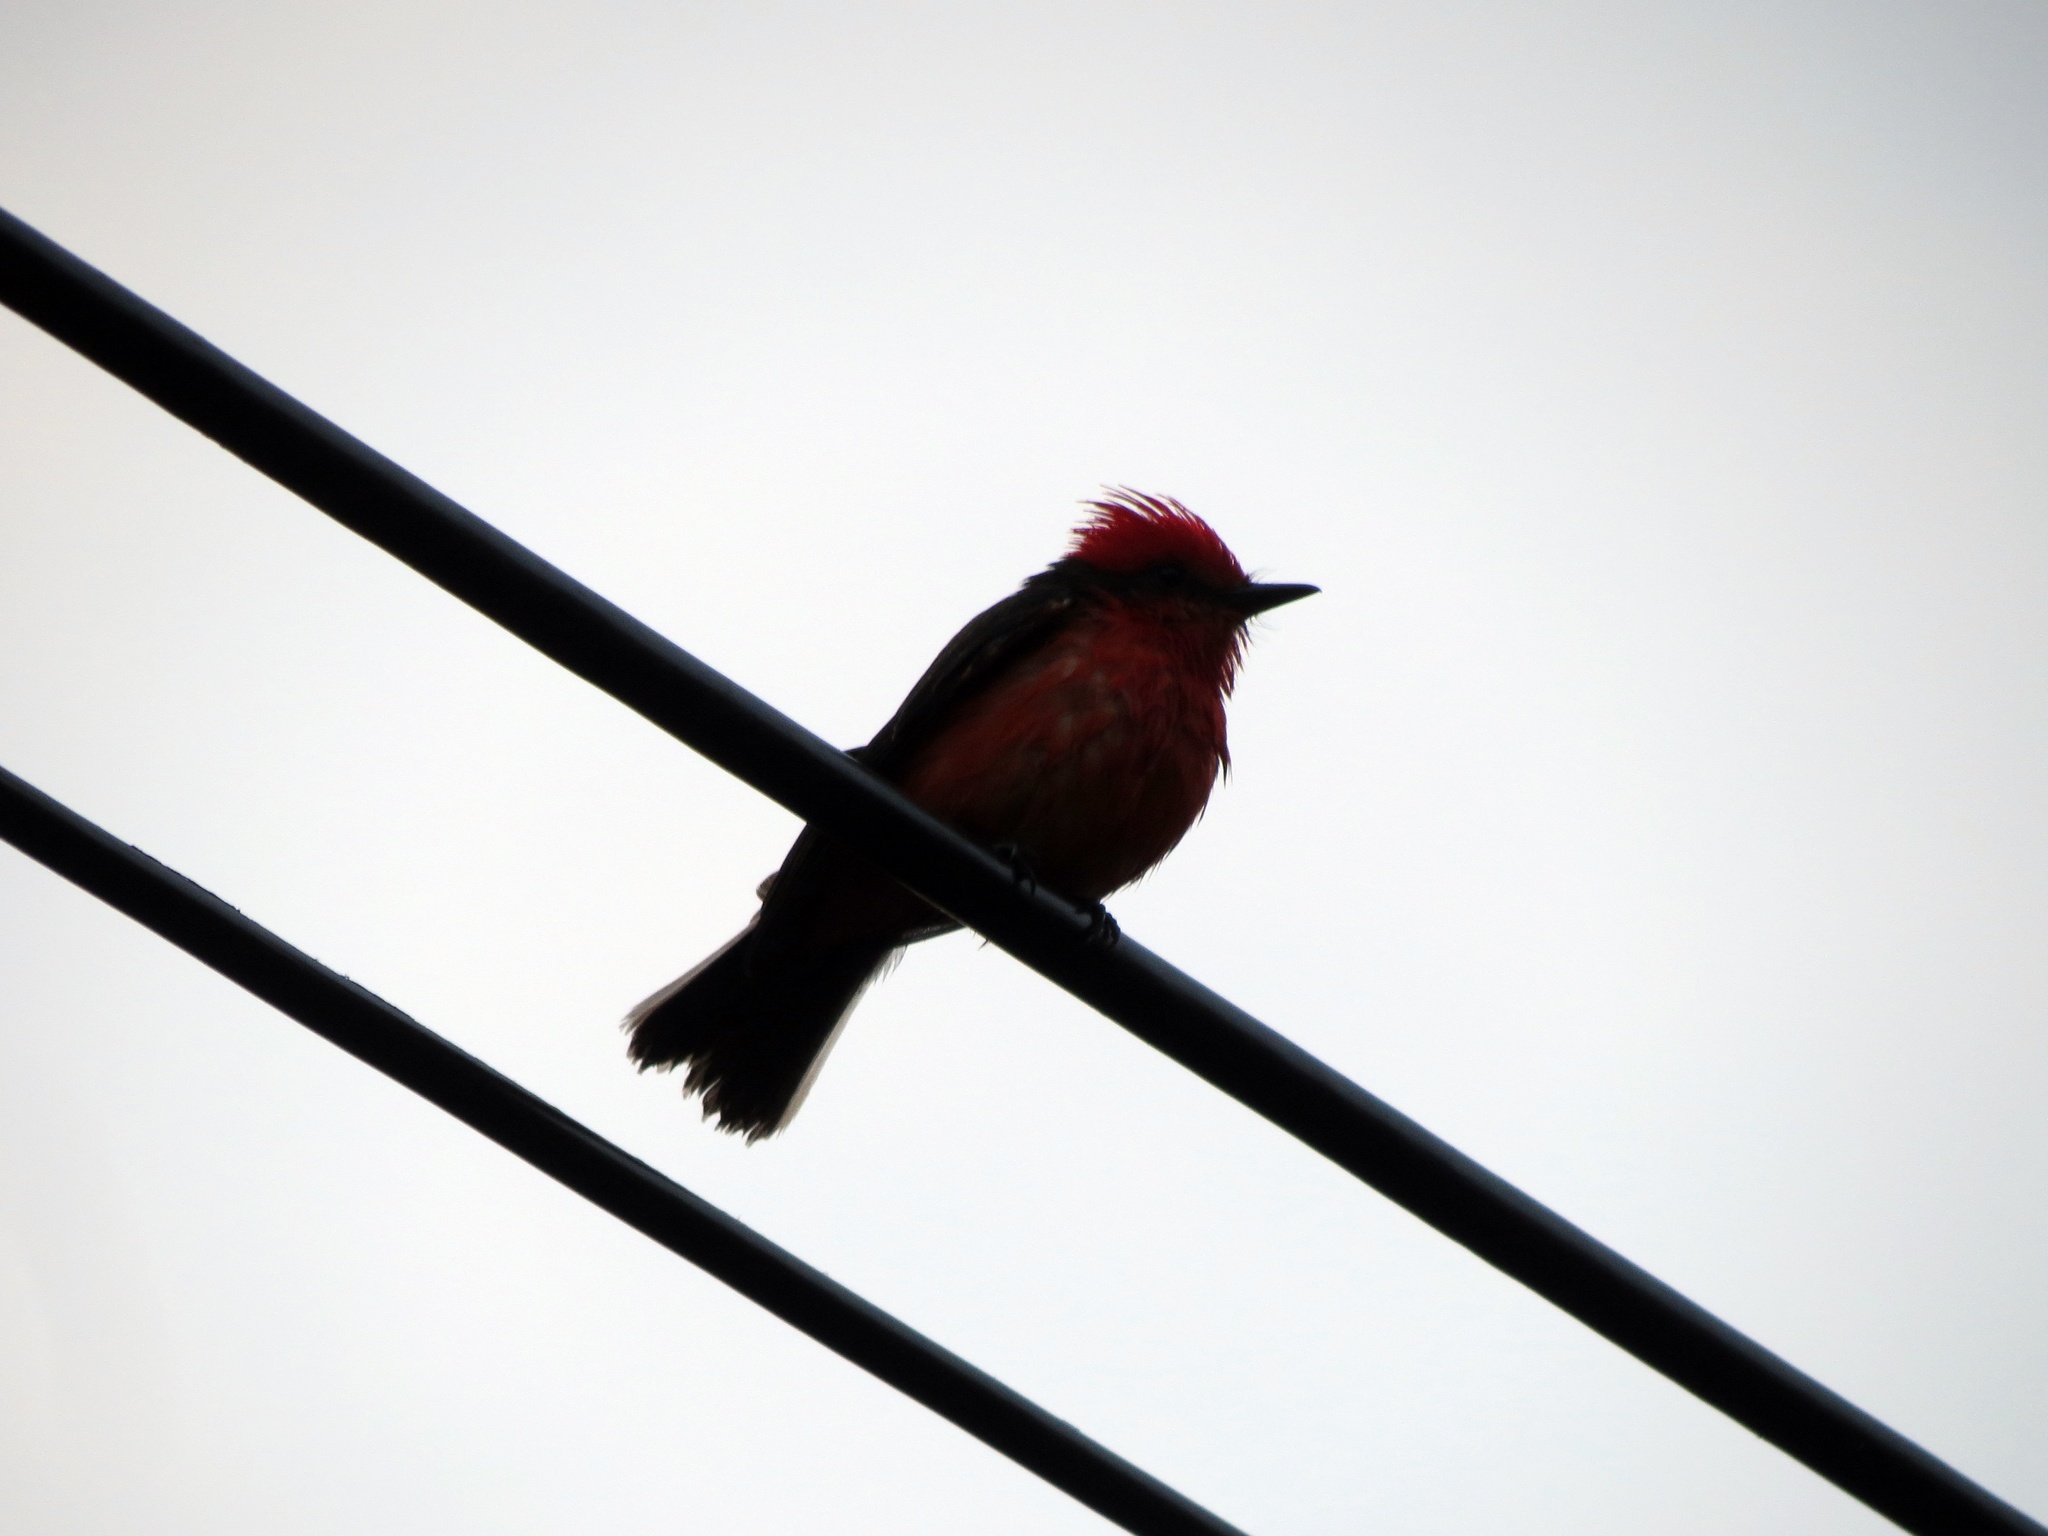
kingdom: Animalia
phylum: Chordata
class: Aves
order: Passeriformes
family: Tyrannidae
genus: Pyrocephalus
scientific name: Pyrocephalus rubinus
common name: Vermilion flycatcher
